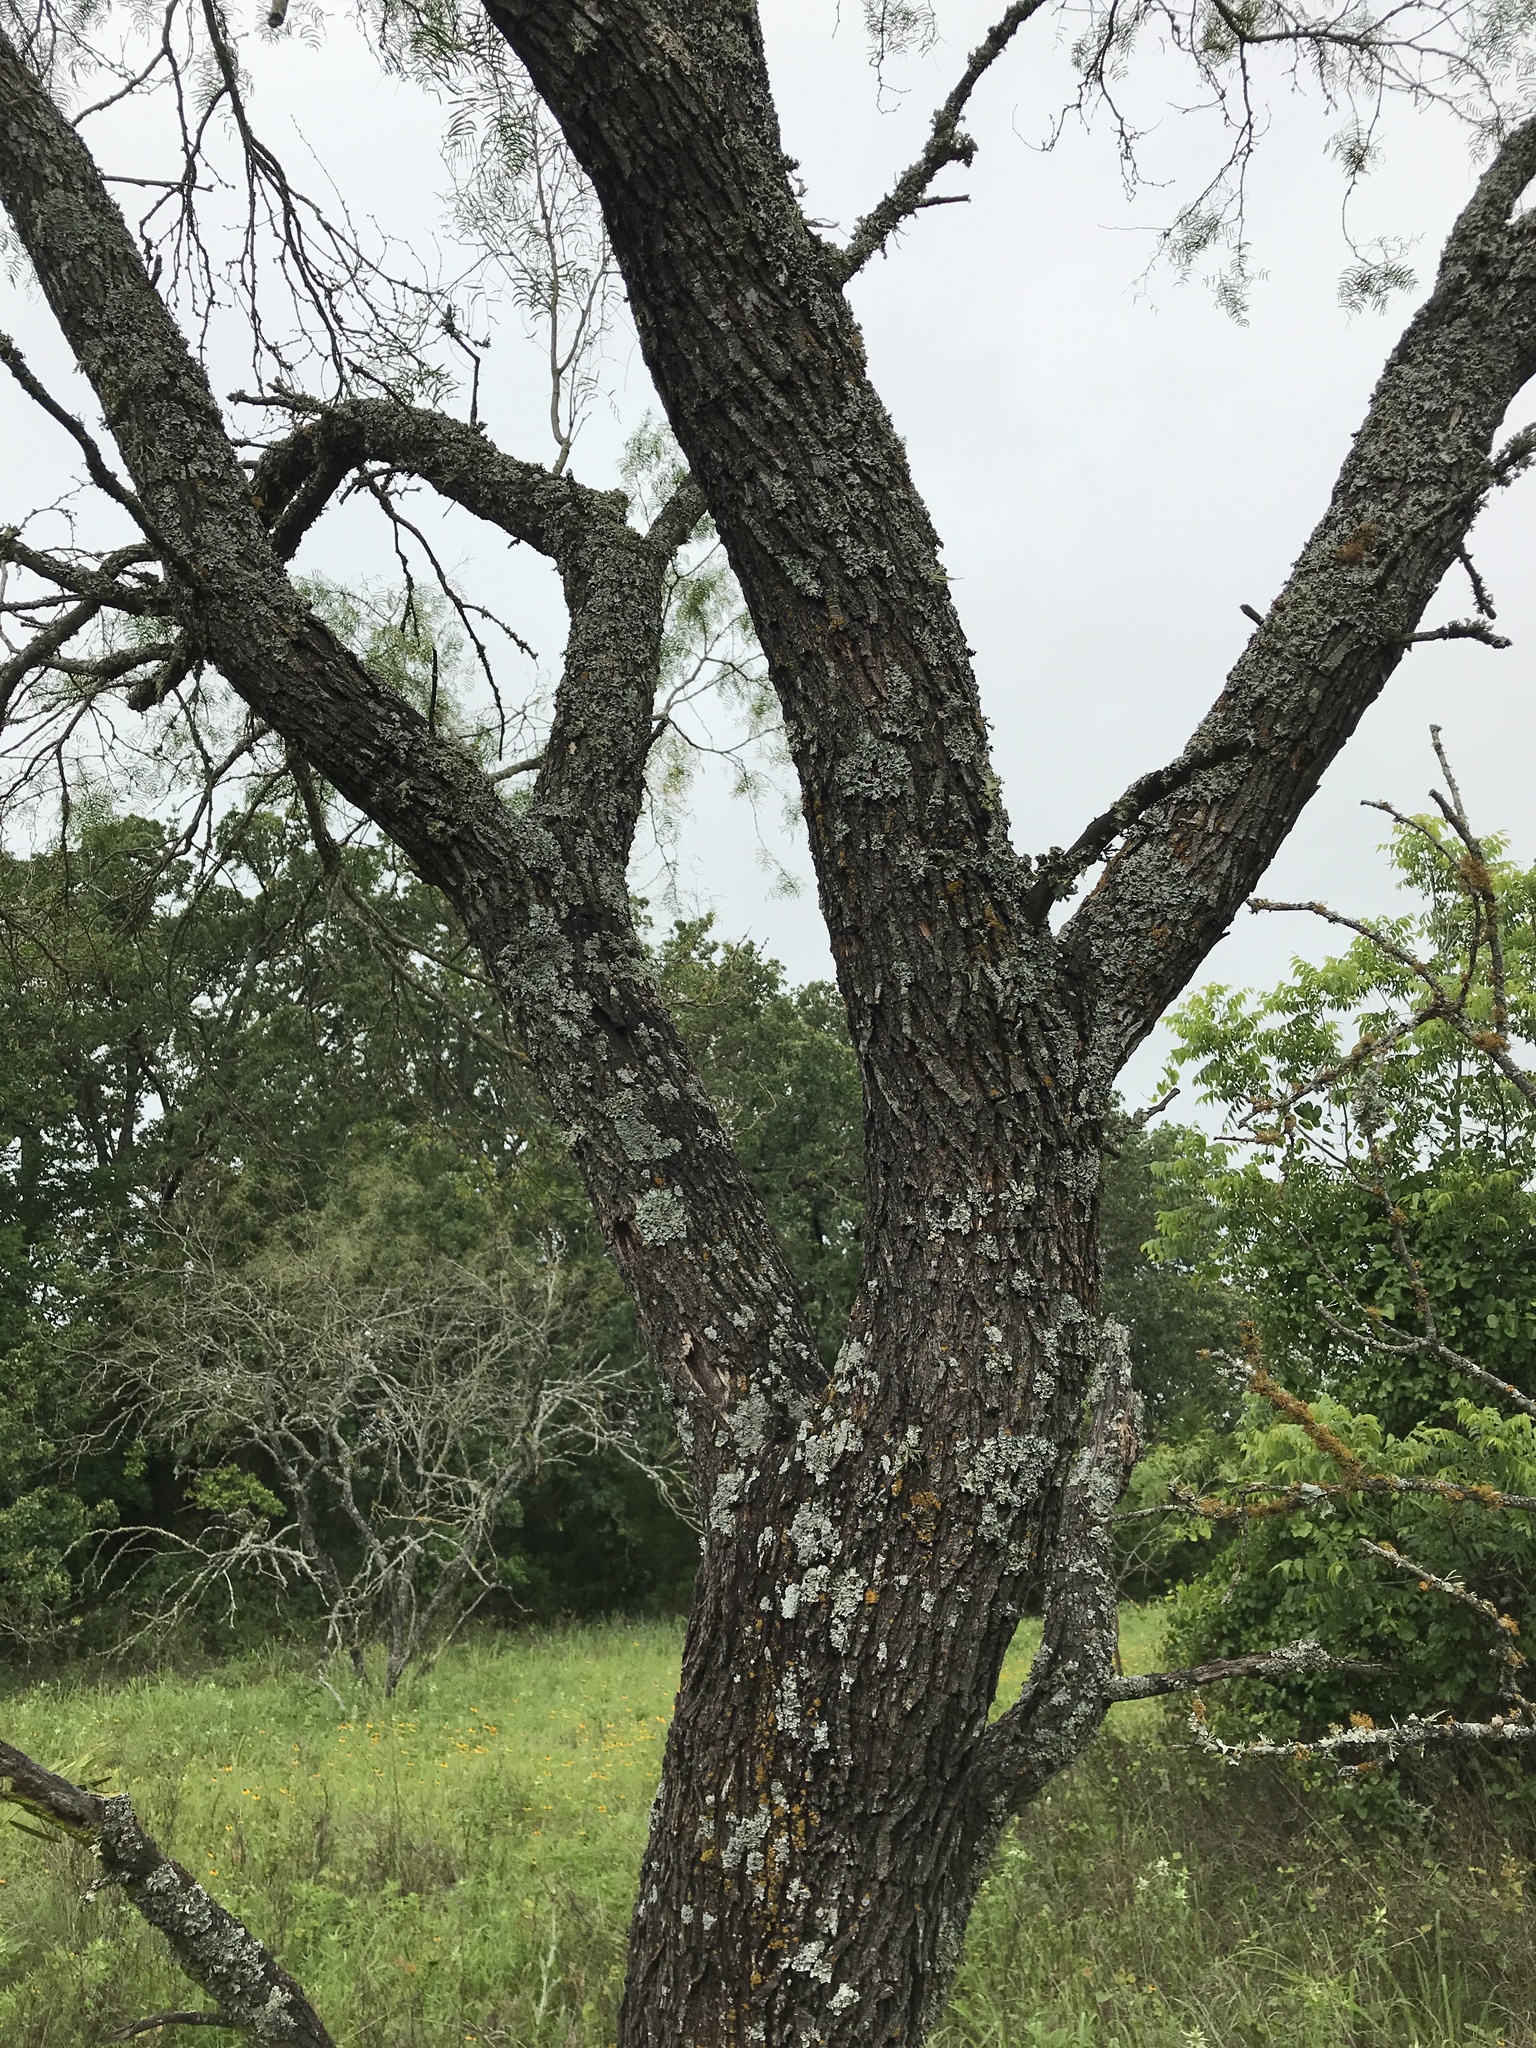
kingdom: Plantae
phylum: Tracheophyta
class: Magnoliopsida
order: Fabales
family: Fabaceae
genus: Prosopis
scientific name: Prosopis glandulosa
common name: Honey mesquite
